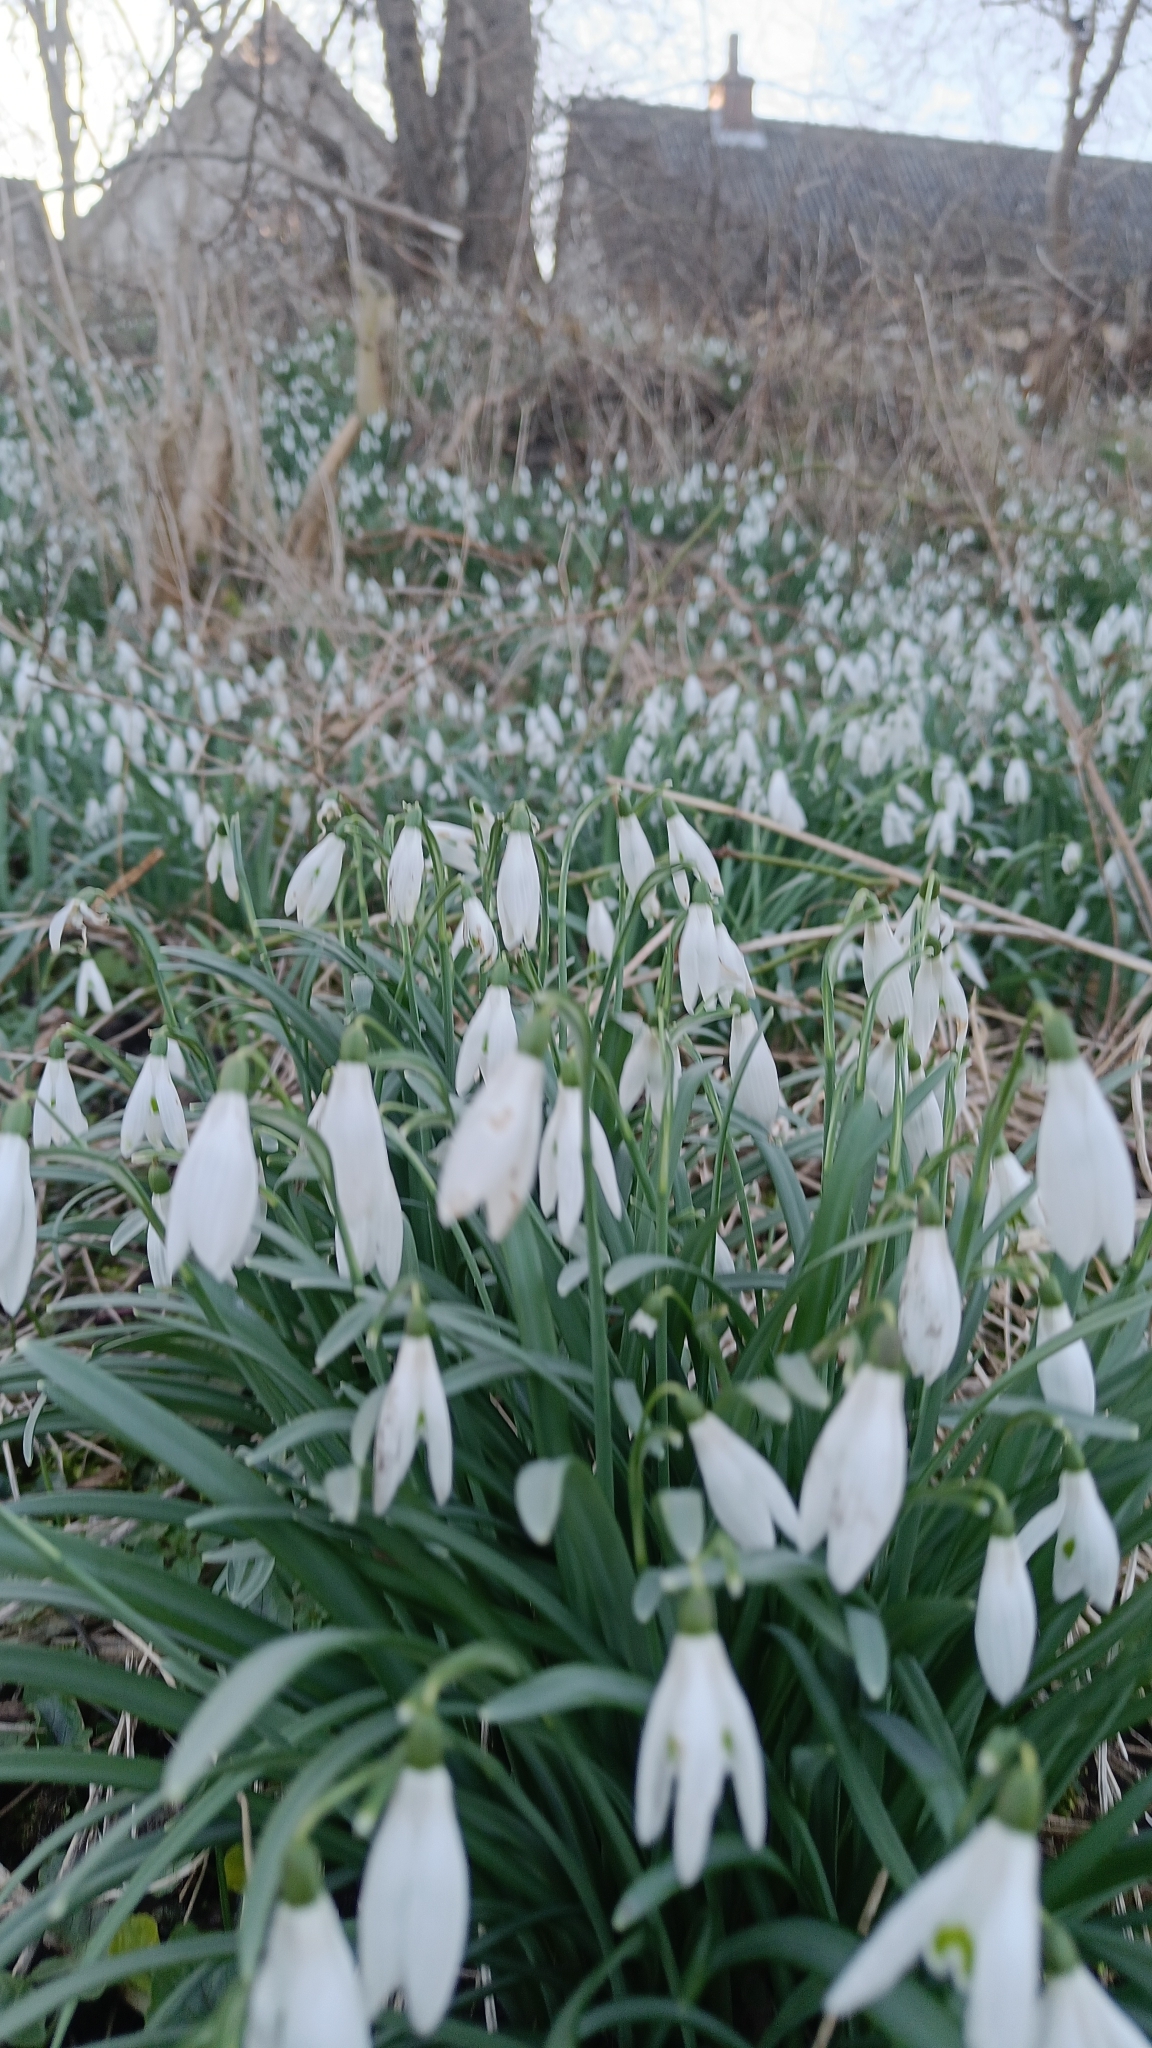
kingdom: Plantae
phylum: Tracheophyta
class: Liliopsida
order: Asparagales
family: Amaryllidaceae
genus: Galanthus
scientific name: Galanthus nivalis
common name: Snowdrop
